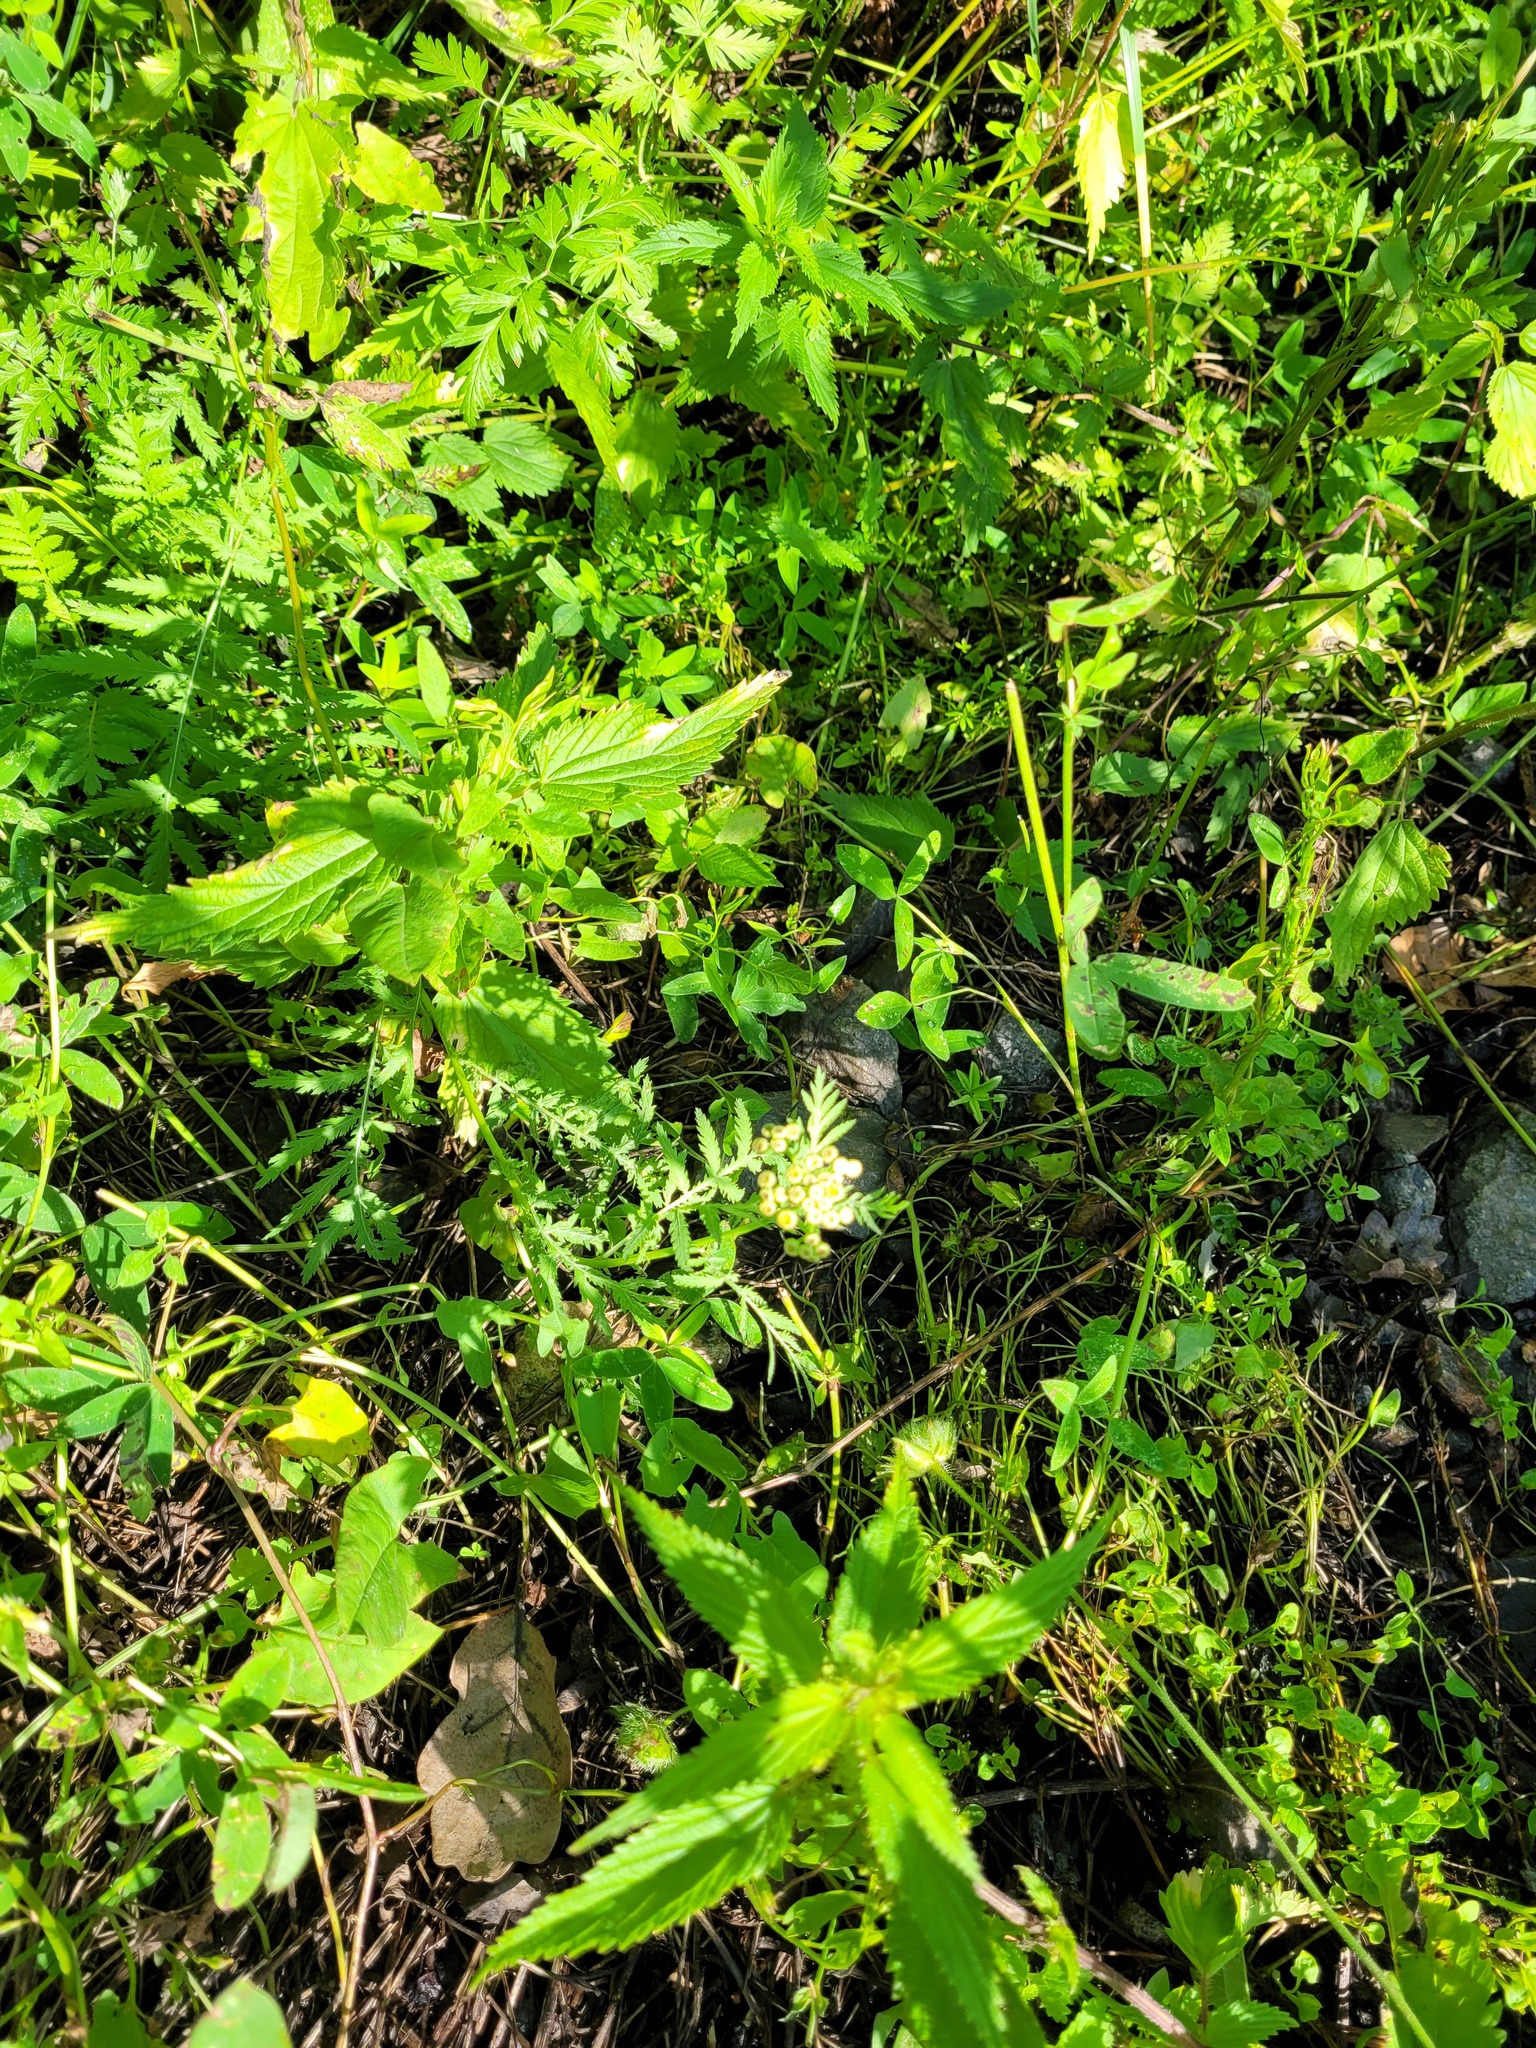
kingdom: Plantae
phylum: Tracheophyta
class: Magnoliopsida
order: Asterales
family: Asteraceae
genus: Tanacetum
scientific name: Tanacetum vulgare
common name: Common tansy
